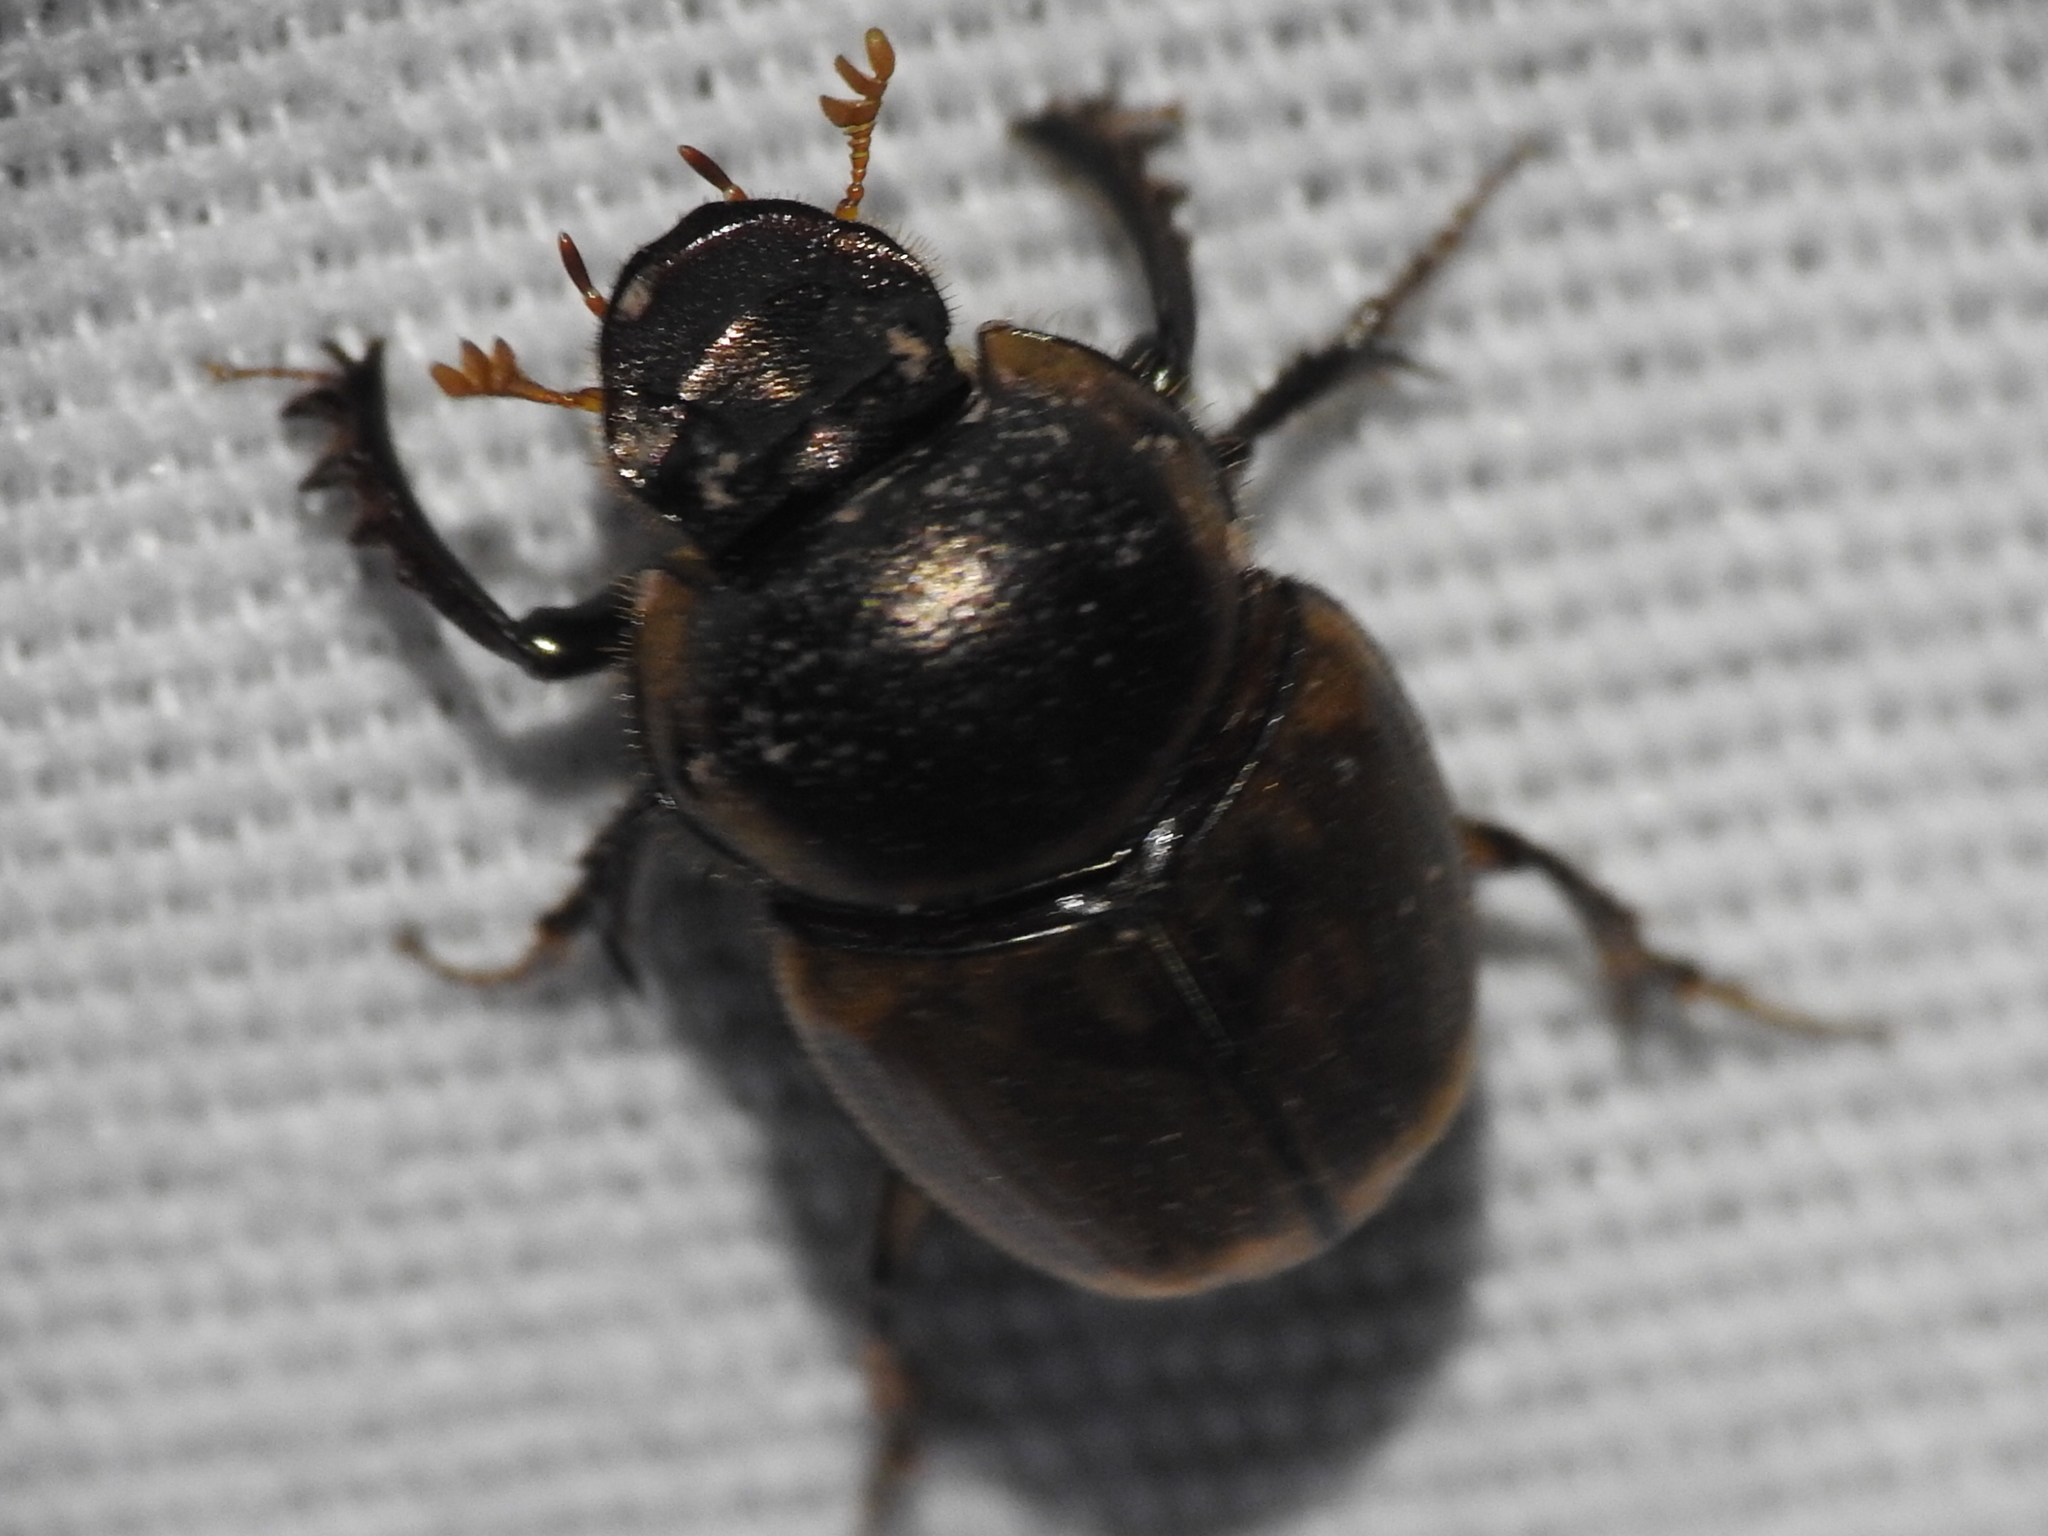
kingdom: Animalia
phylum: Arthropoda
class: Insecta
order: Coleoptera
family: Scarabaeidae
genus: Digitonthophagus
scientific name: Digitonthophagus gazella
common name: Brown dung beetle
